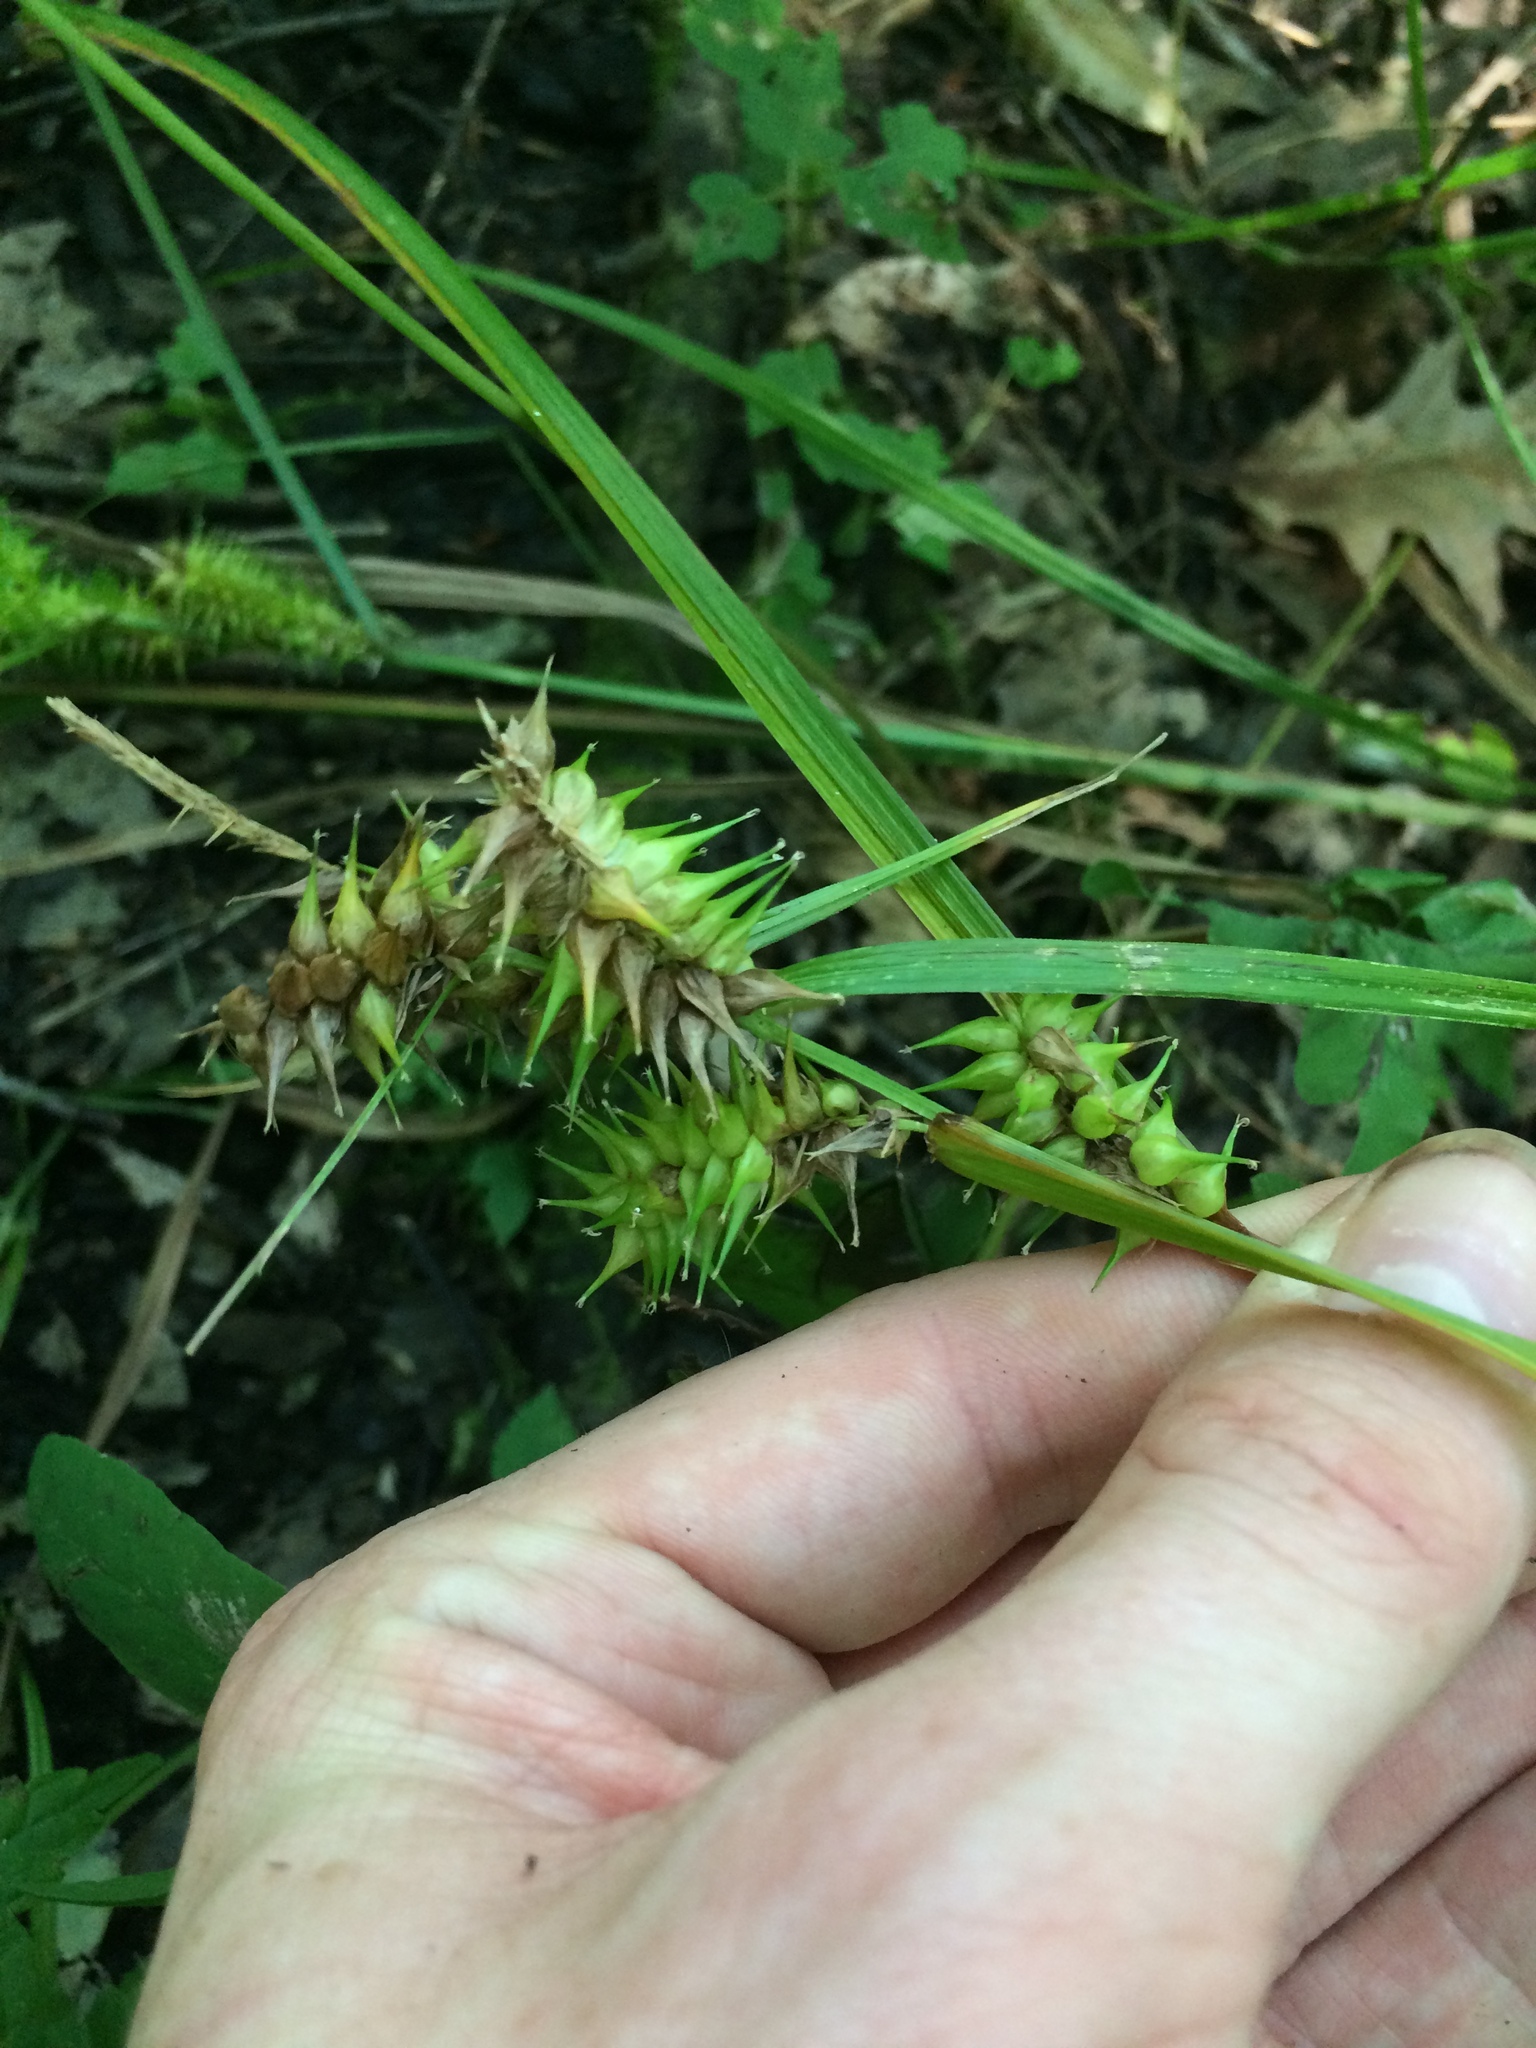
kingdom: Plantae
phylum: Tracheophyta
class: Liliopsida
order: Poales
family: Cyperaceae
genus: Carex
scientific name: Carex retrorsa
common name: Knot-sheath sedge
